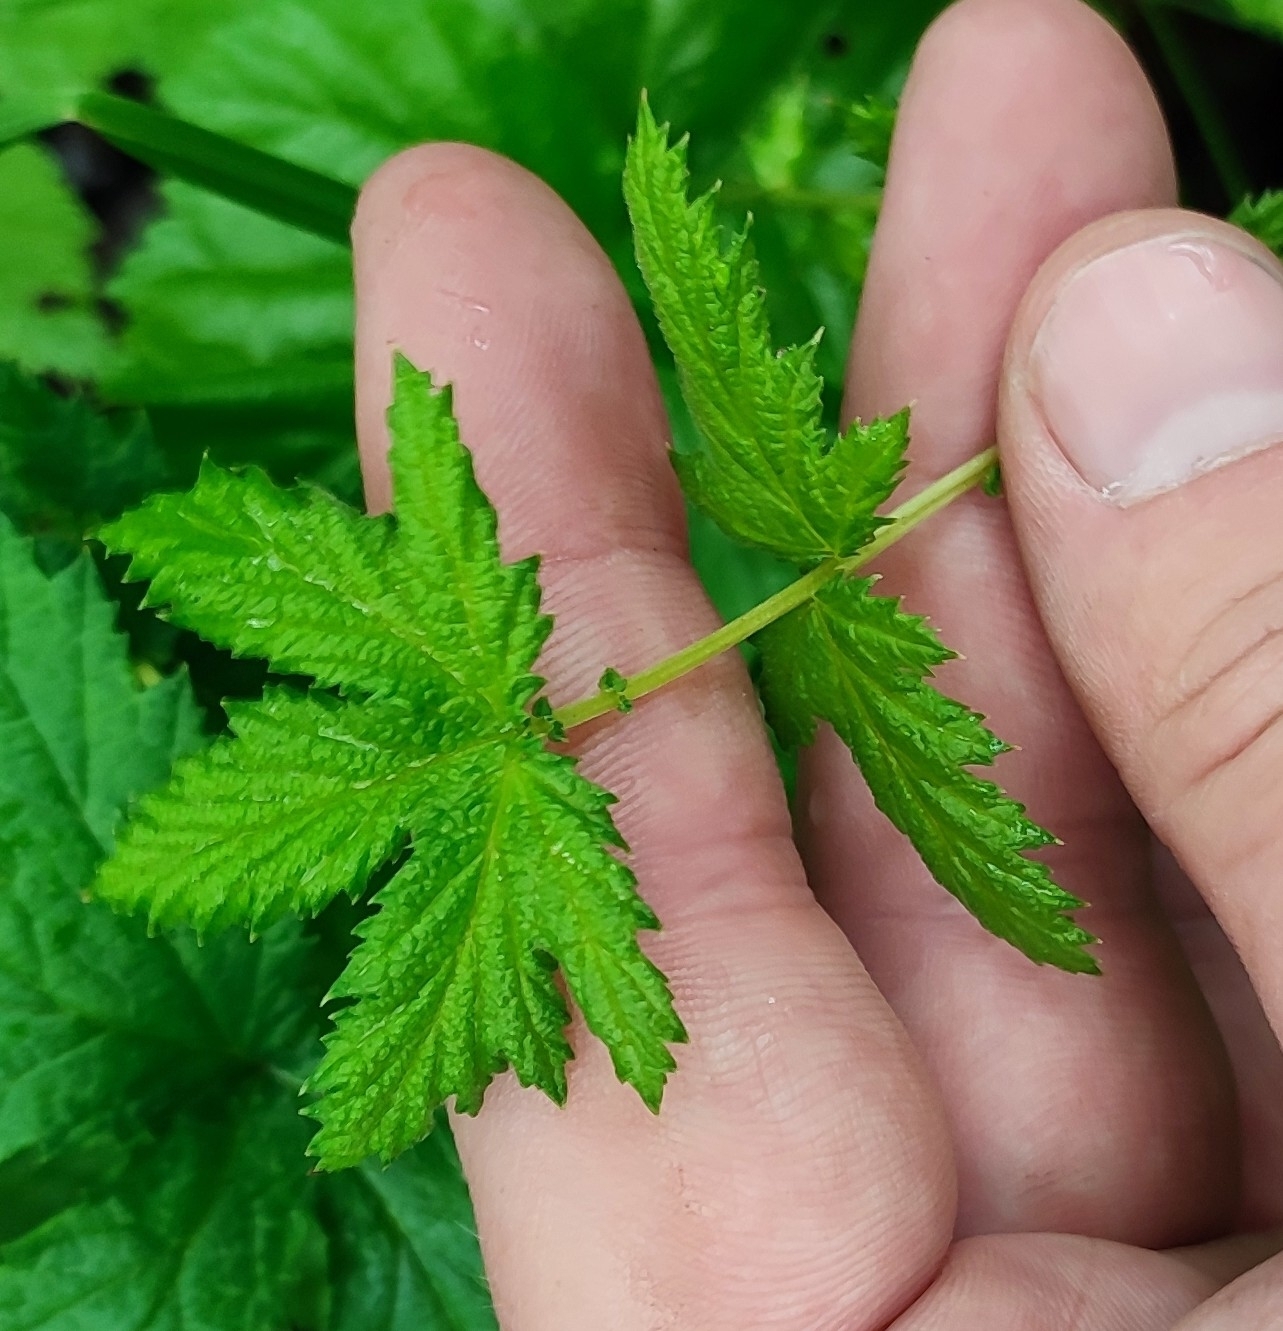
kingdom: Plantae
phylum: Tracheophyta
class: Magnoliopsida
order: Rosales
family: Rosaceae
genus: Filipendula
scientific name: Filipendula ulmaria
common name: Meadowsweet
